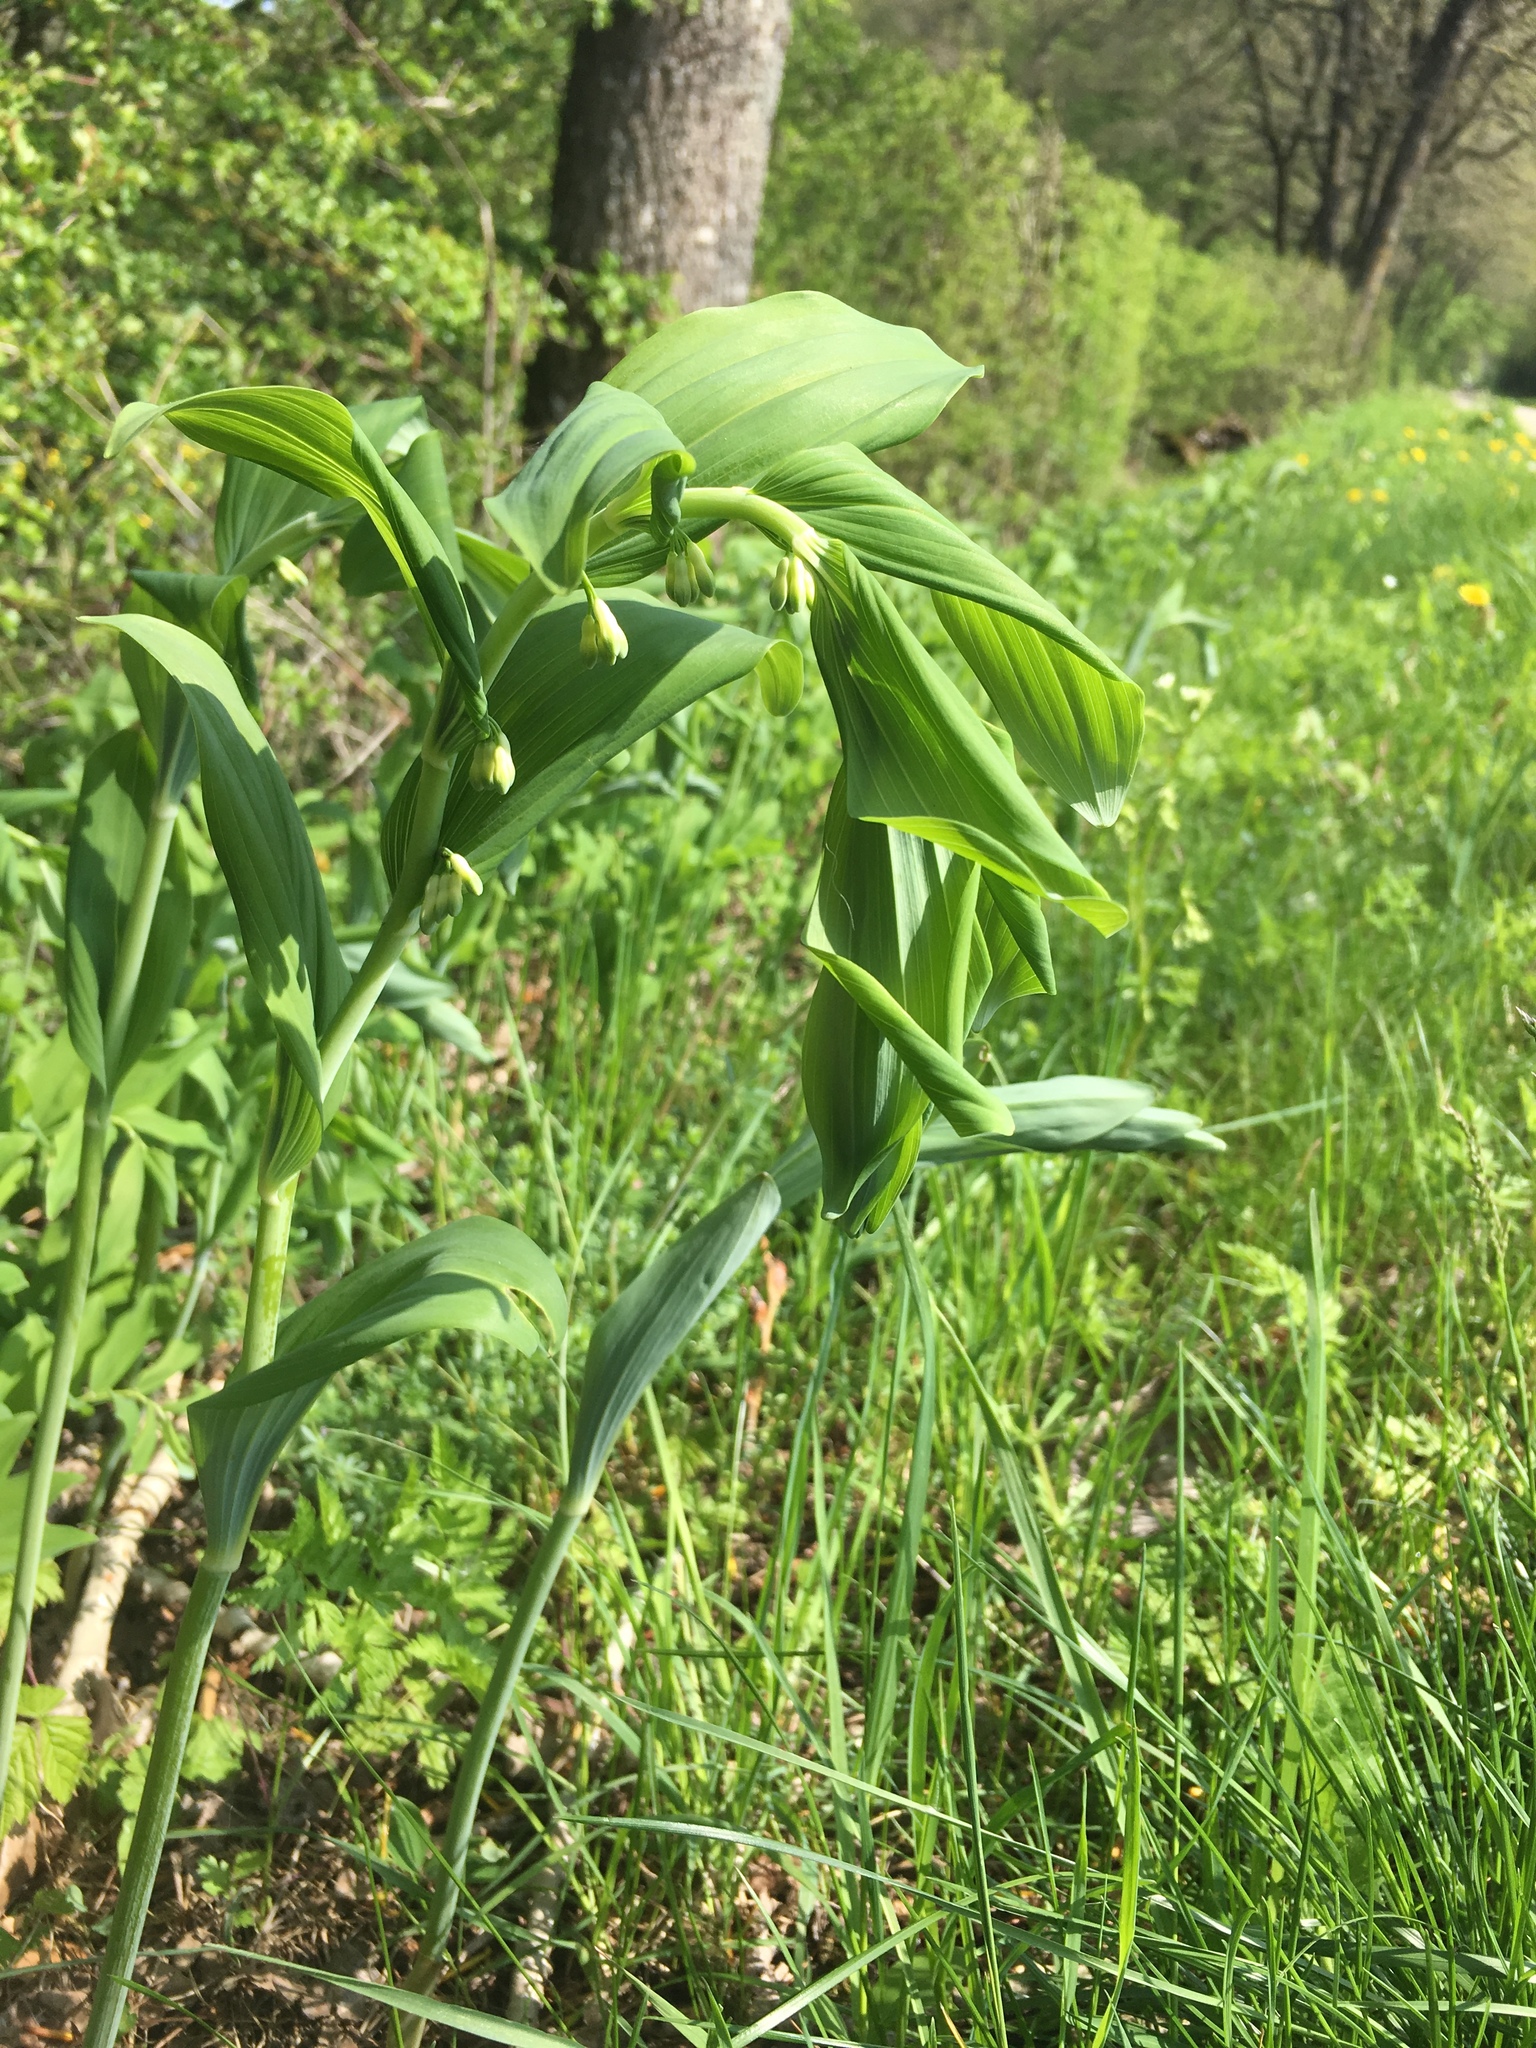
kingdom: Plantae
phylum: Tracheophyta
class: Liliopsida
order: Asparagales
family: Asparagaceae
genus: Polygonatum
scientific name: Polygonatum multiflorum
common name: Solomon's-seal
